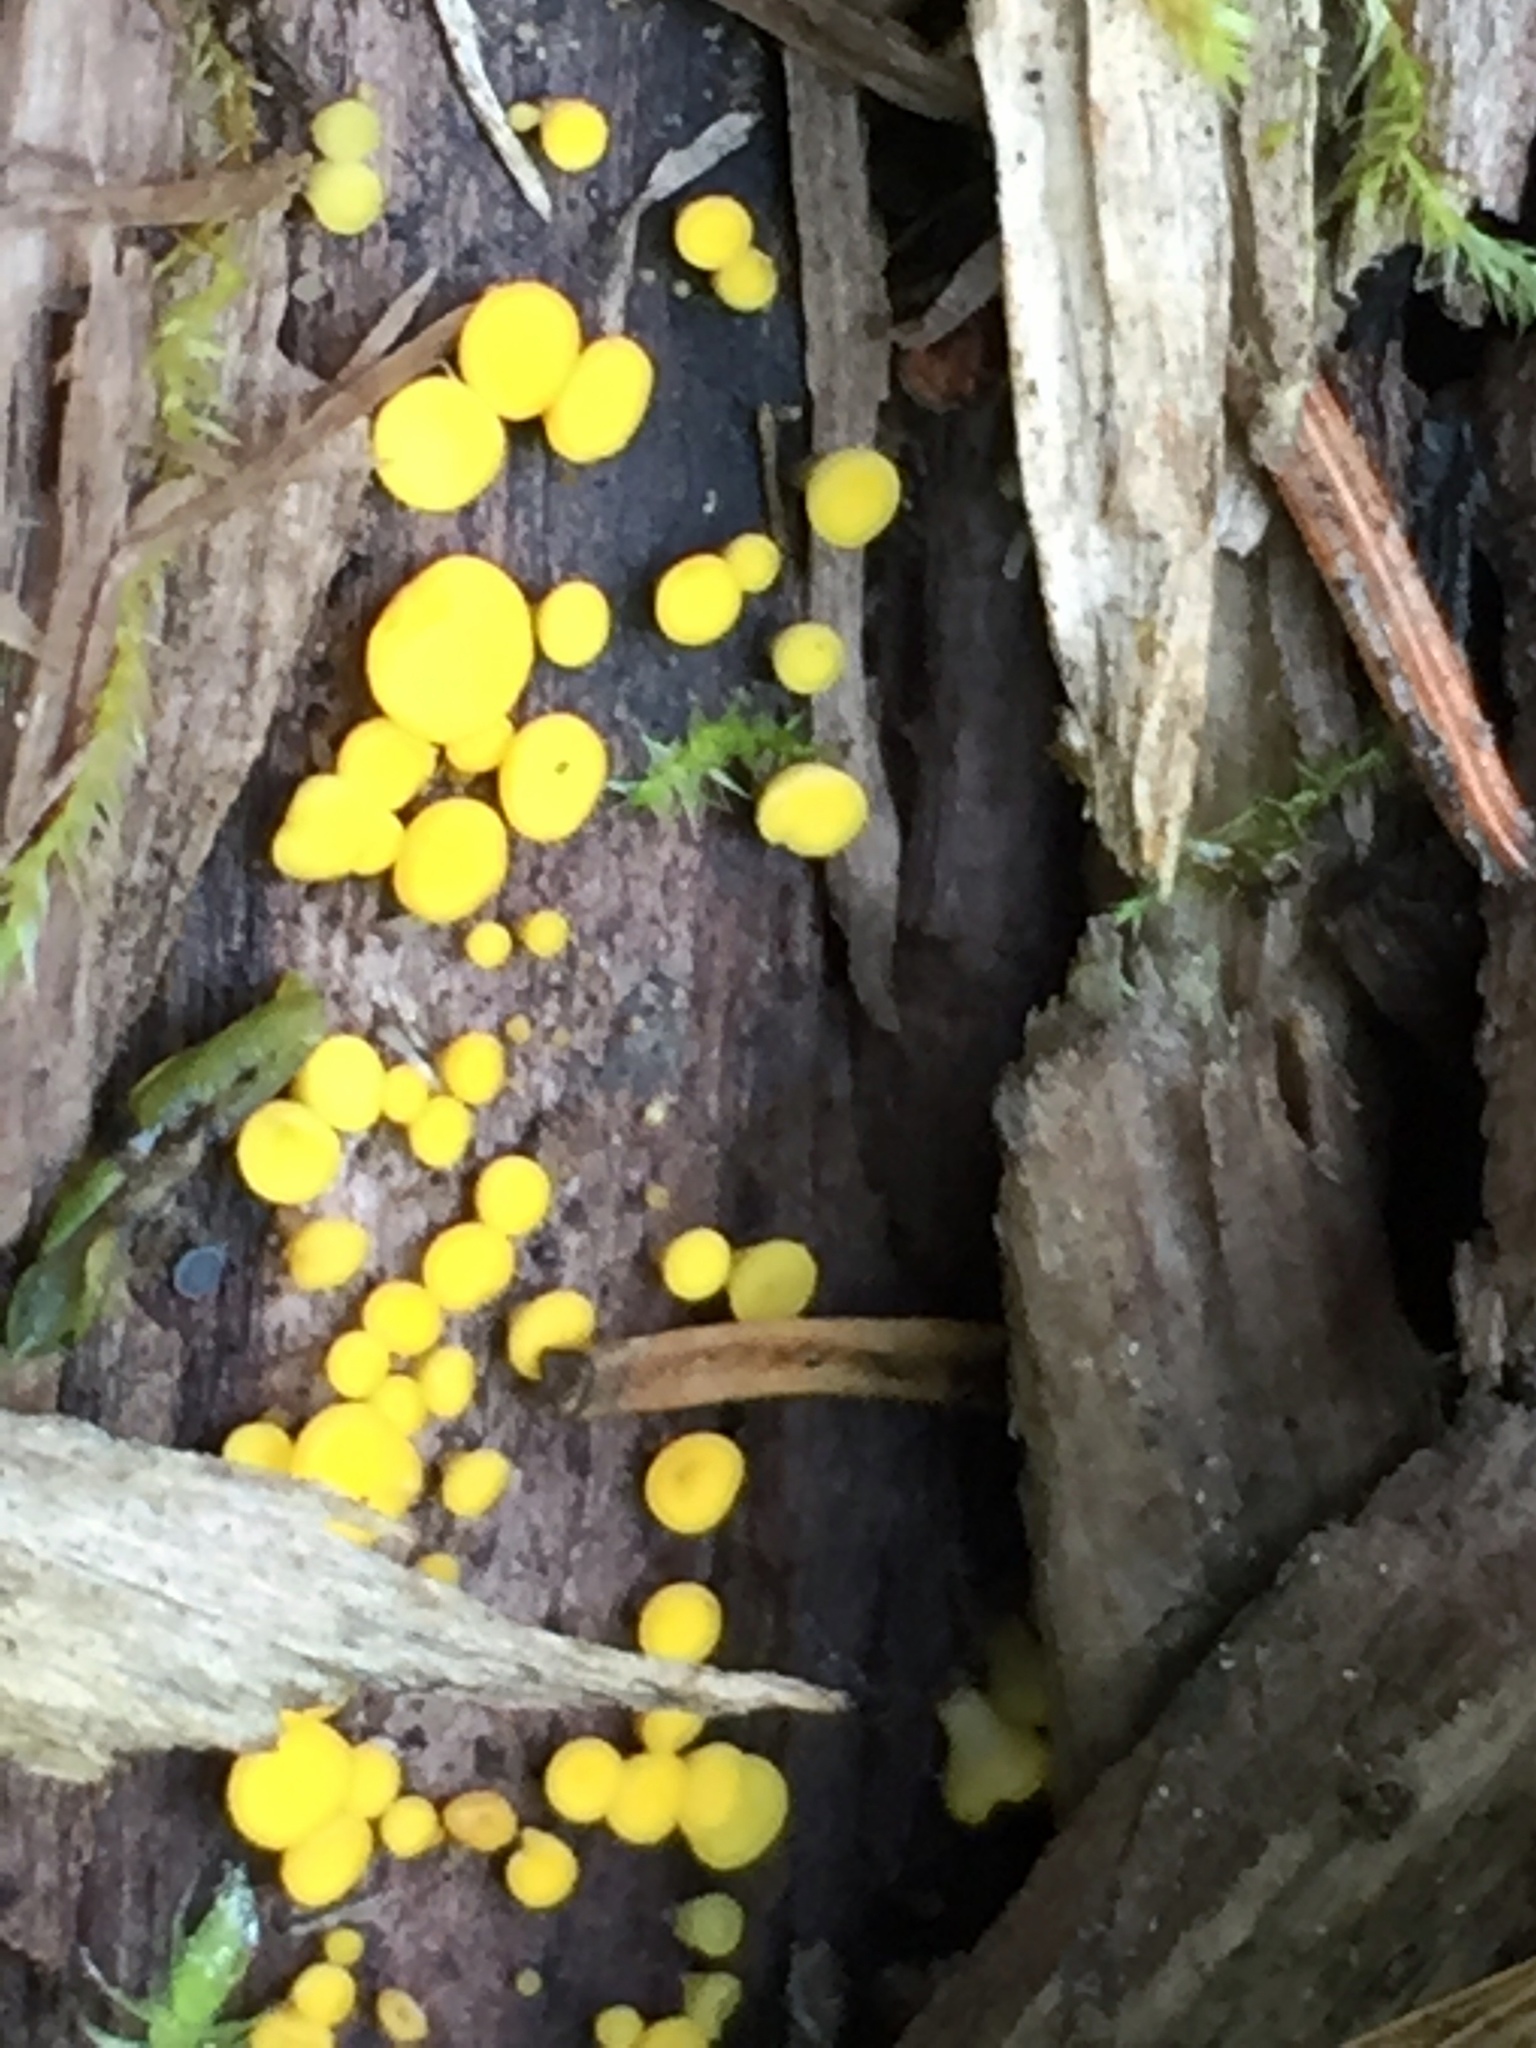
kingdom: Fungi
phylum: Ascomycota
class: Leotiomycetes
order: Helotiales
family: Pezizellaceae
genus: Calycina
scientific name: Calycina citrina
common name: Yellow fairy cups
